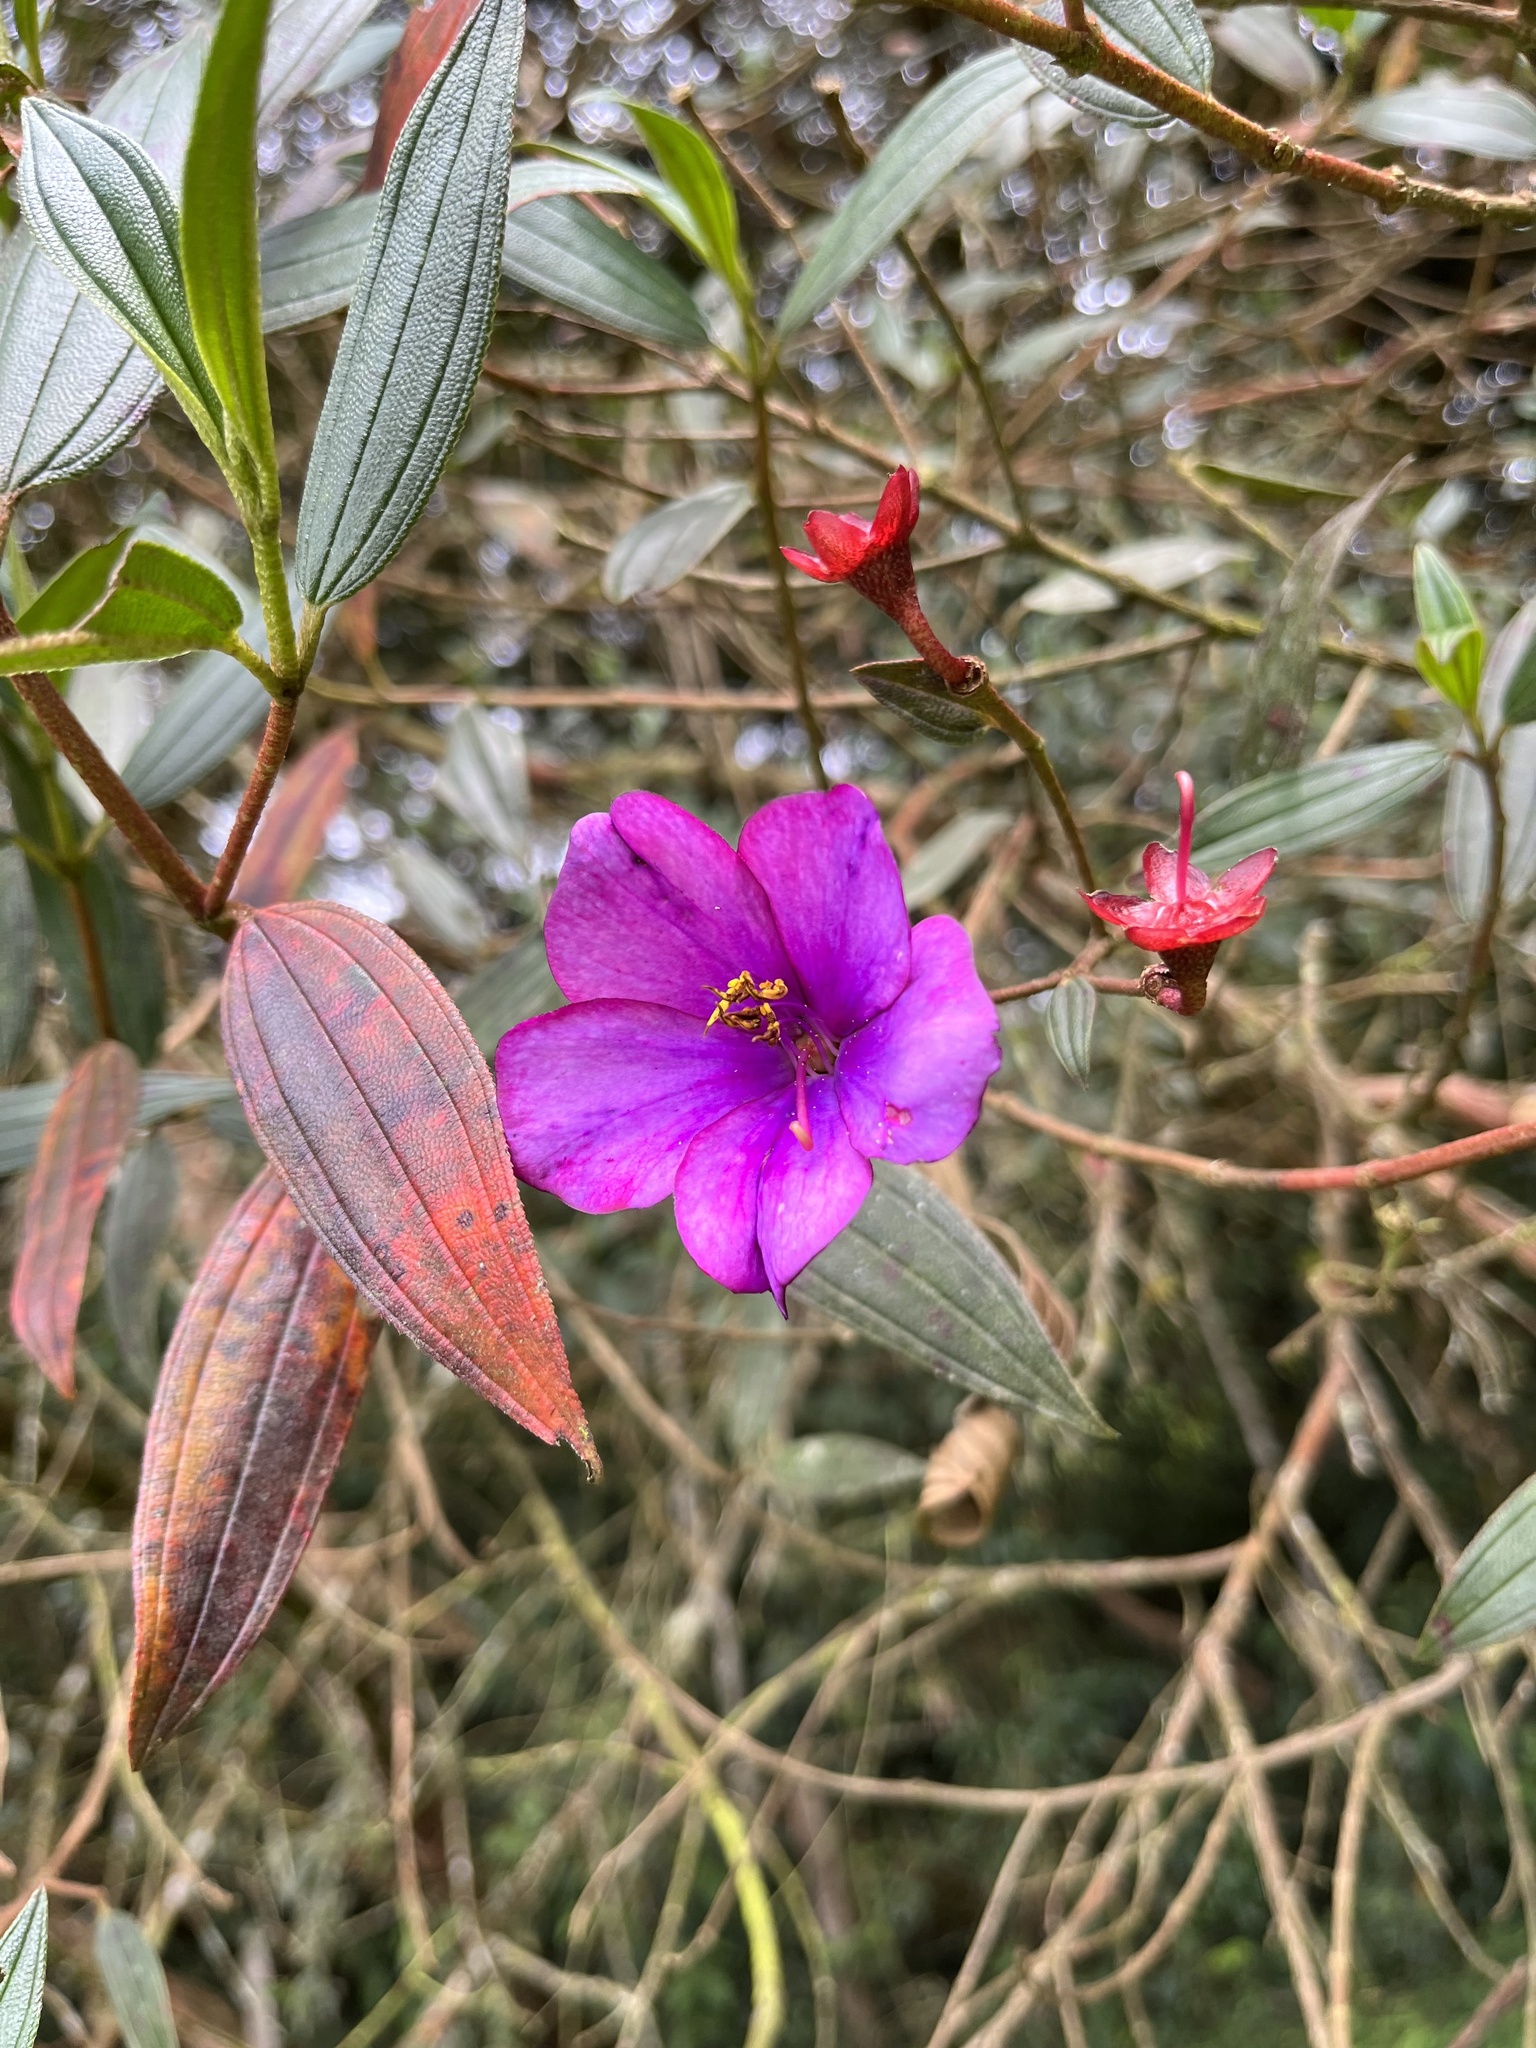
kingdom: Plantae
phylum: Tracheophyta
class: Magnoliopsida
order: Myrtales
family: Melastomataceae
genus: Andesanthus
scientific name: Andesanthus lepidotus
